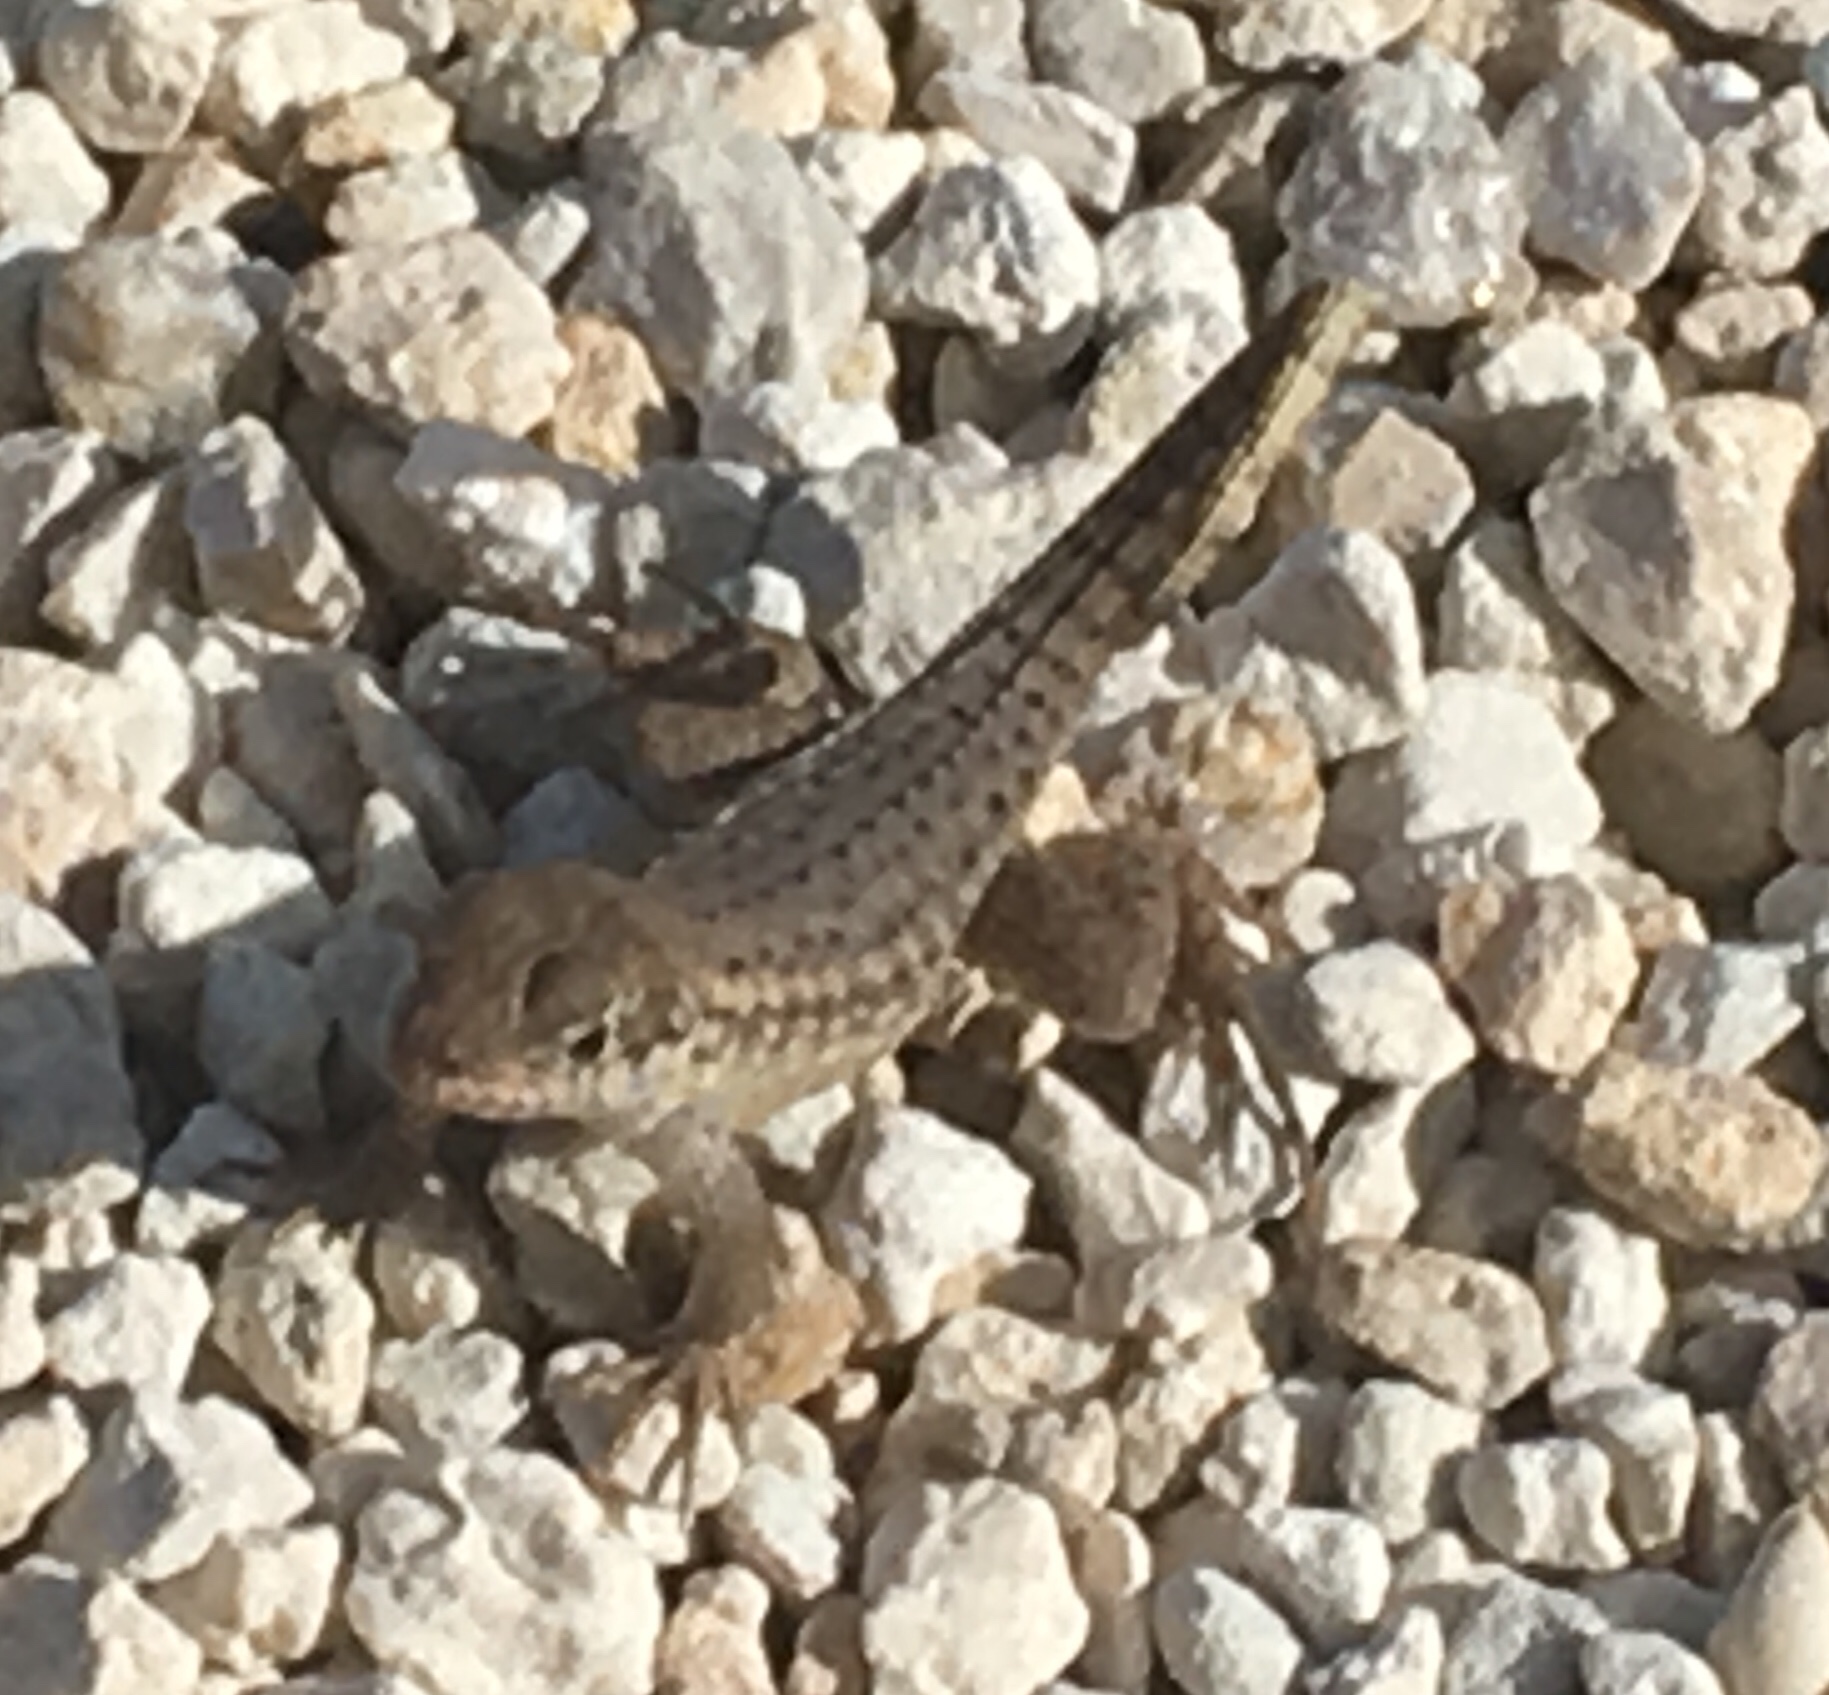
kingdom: Animalia
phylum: Chordata
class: Squamata
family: Leiocephalidae
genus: Leiocephalus
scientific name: Leiocephalus carinatus
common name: Northern curly-tailed lizard
